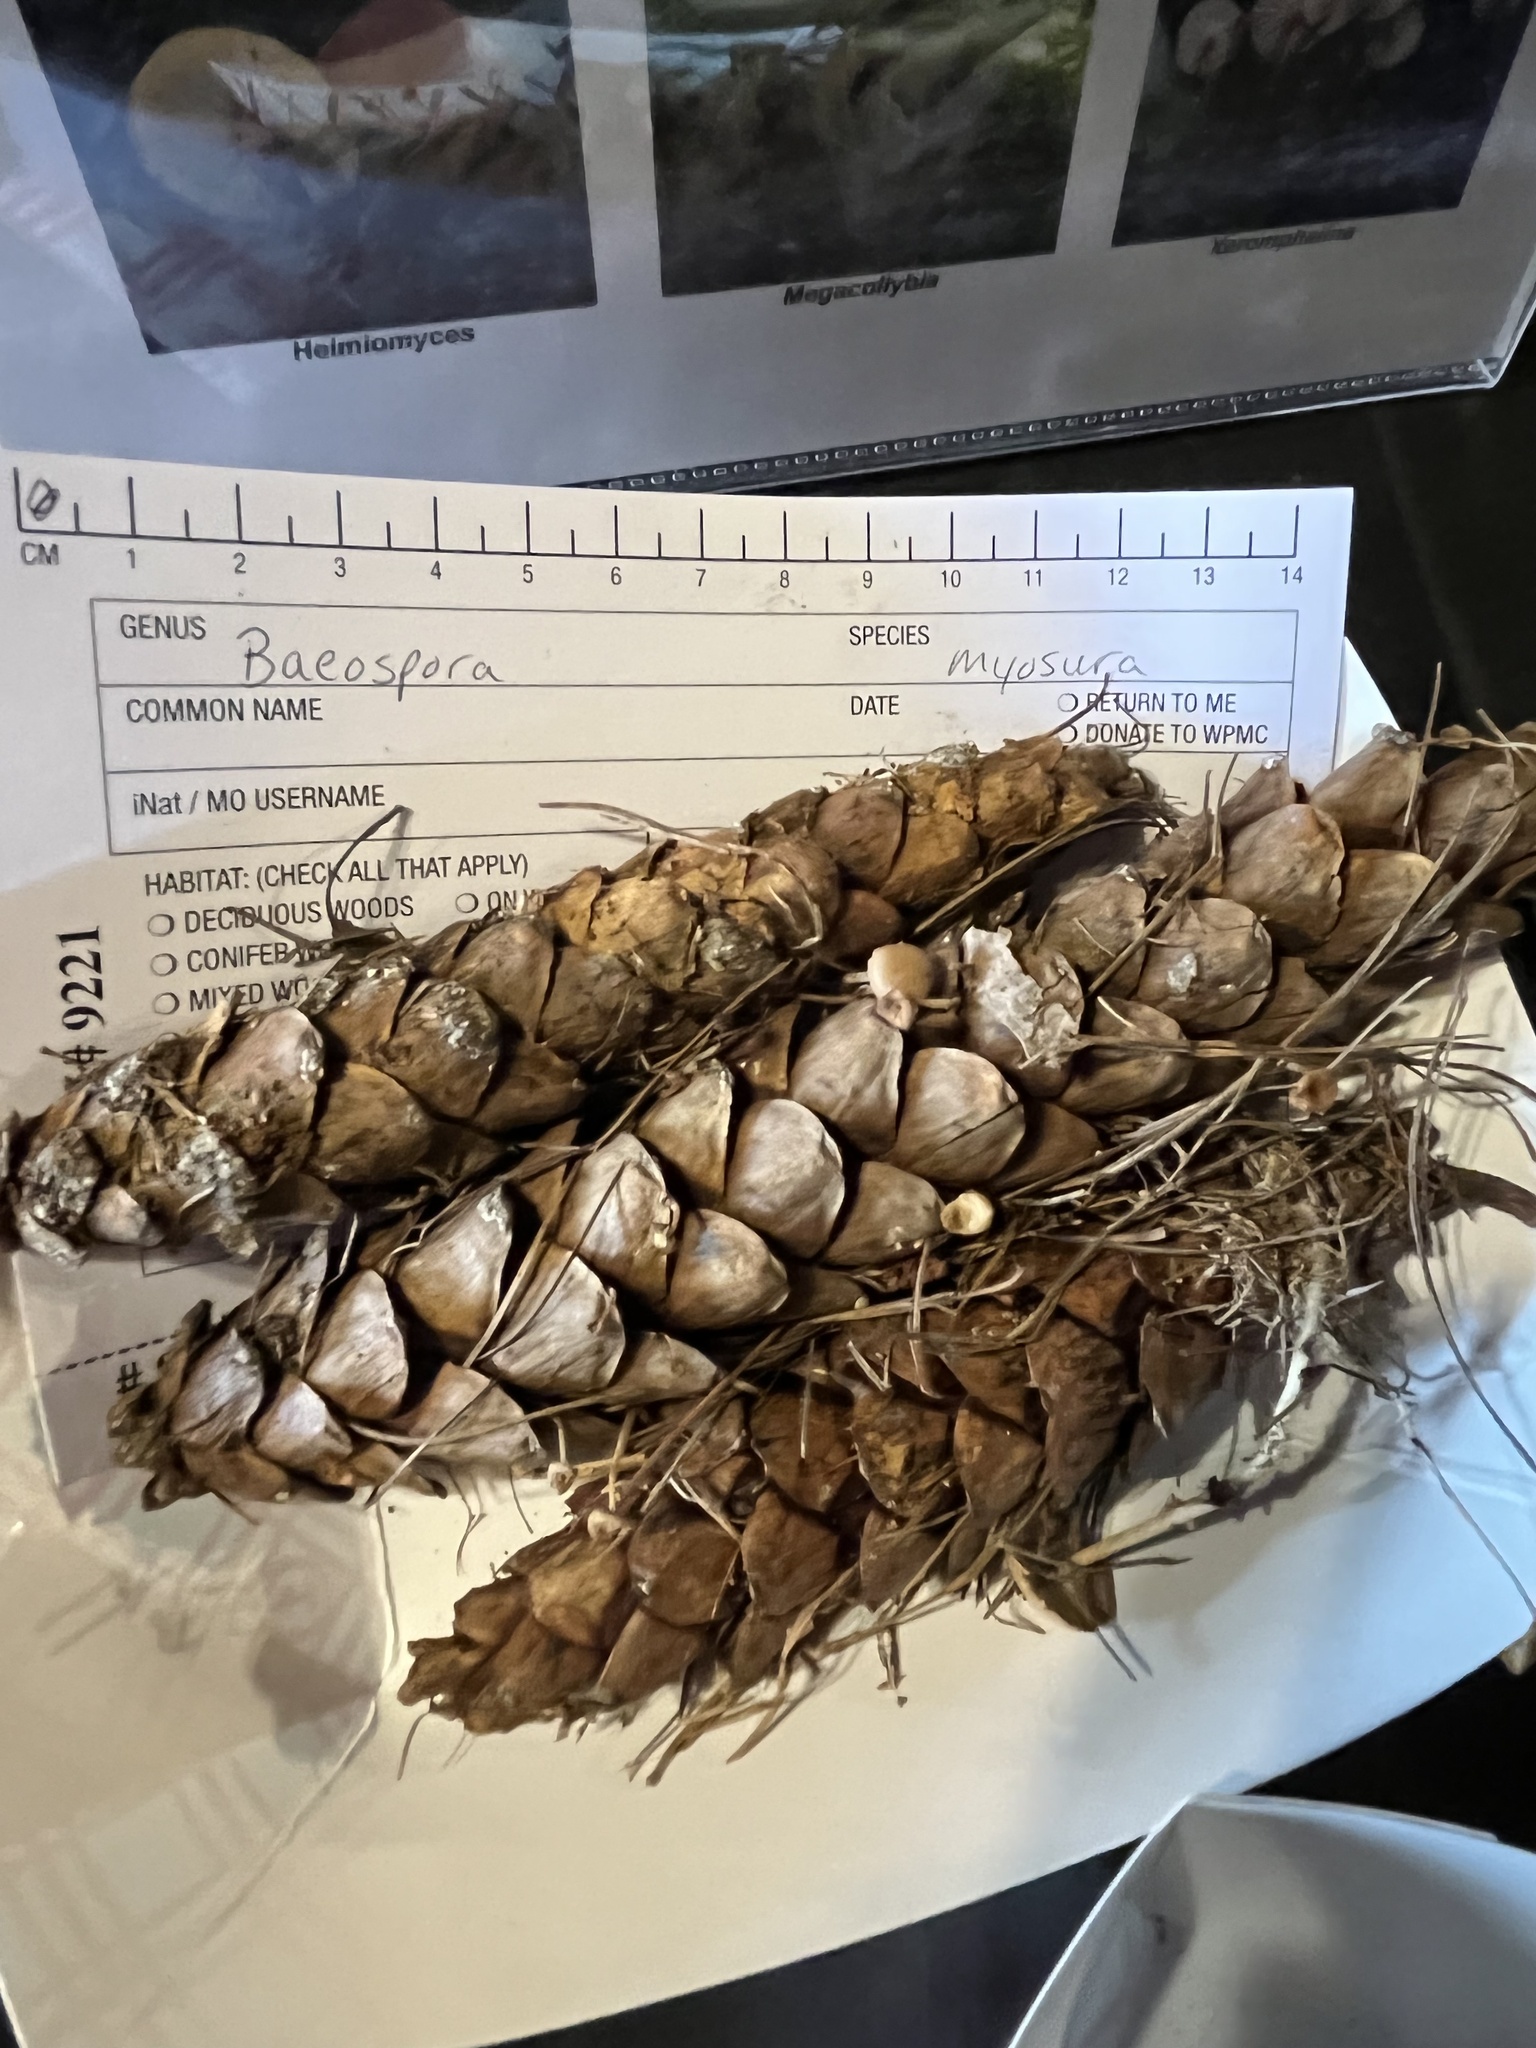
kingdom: Fungi
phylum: Basidiomycota
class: Agaricomycetes
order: Agaricales
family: Marasmiaceae
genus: Baeospora
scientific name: Baeospora myosura
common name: Conifercone cap
